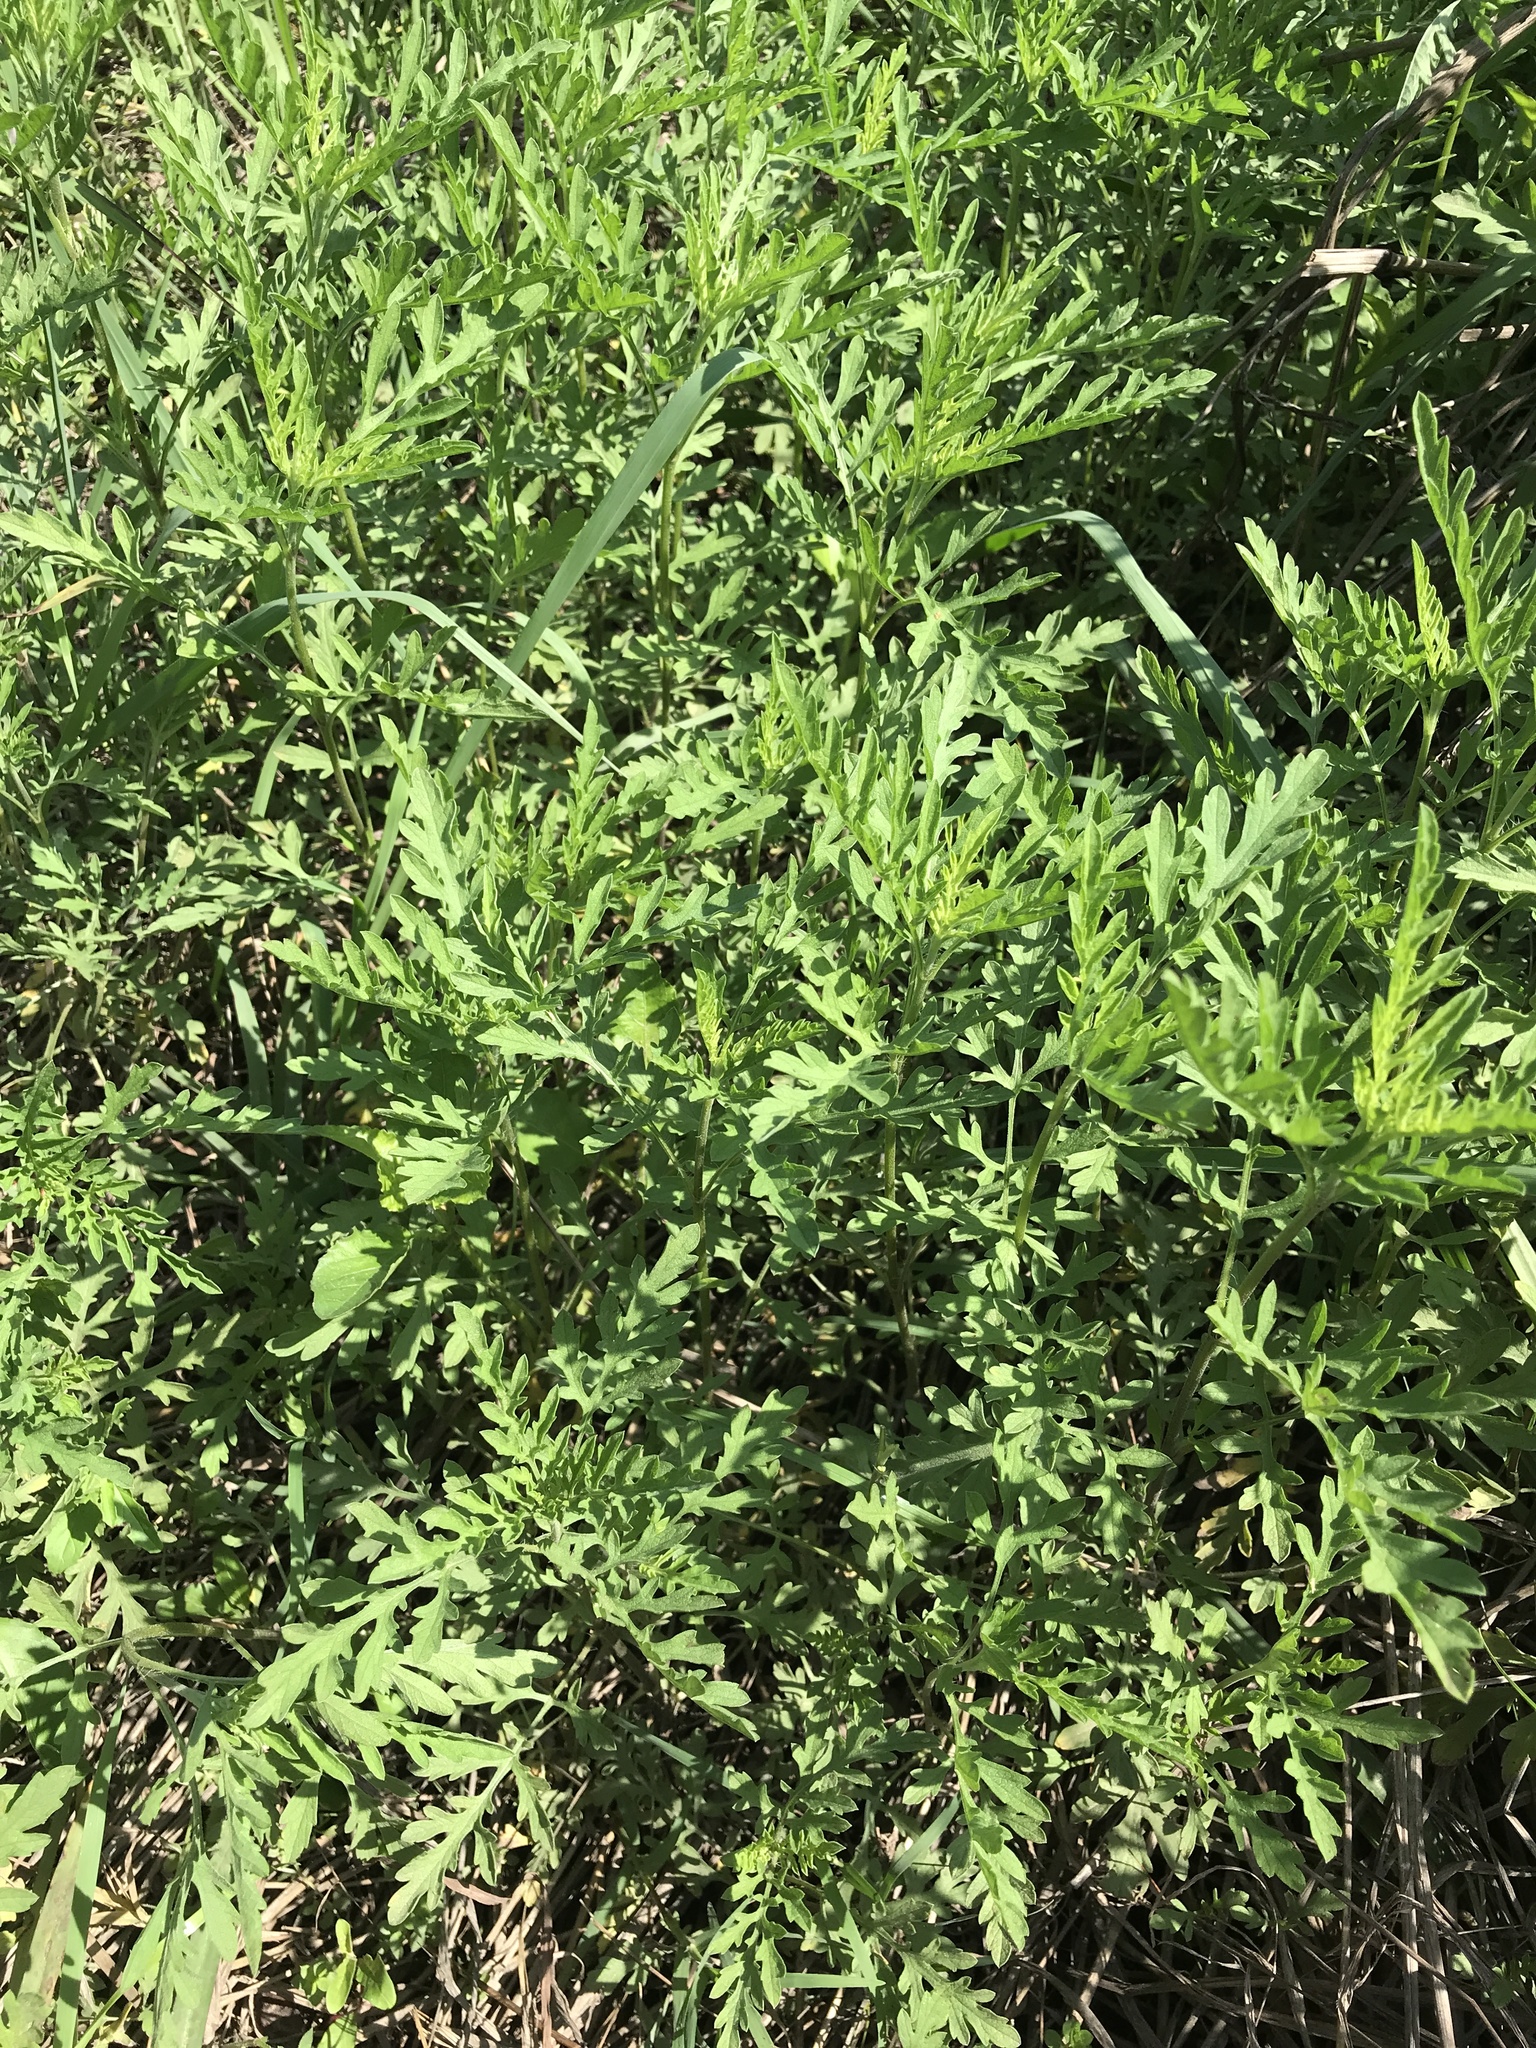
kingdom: Plantae
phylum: Tracheophyta
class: Magnoliopsida
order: Asterales
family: Asteraceae
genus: Ambrosia
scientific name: Ambrosia psilostachya
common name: Perennial ragweed
